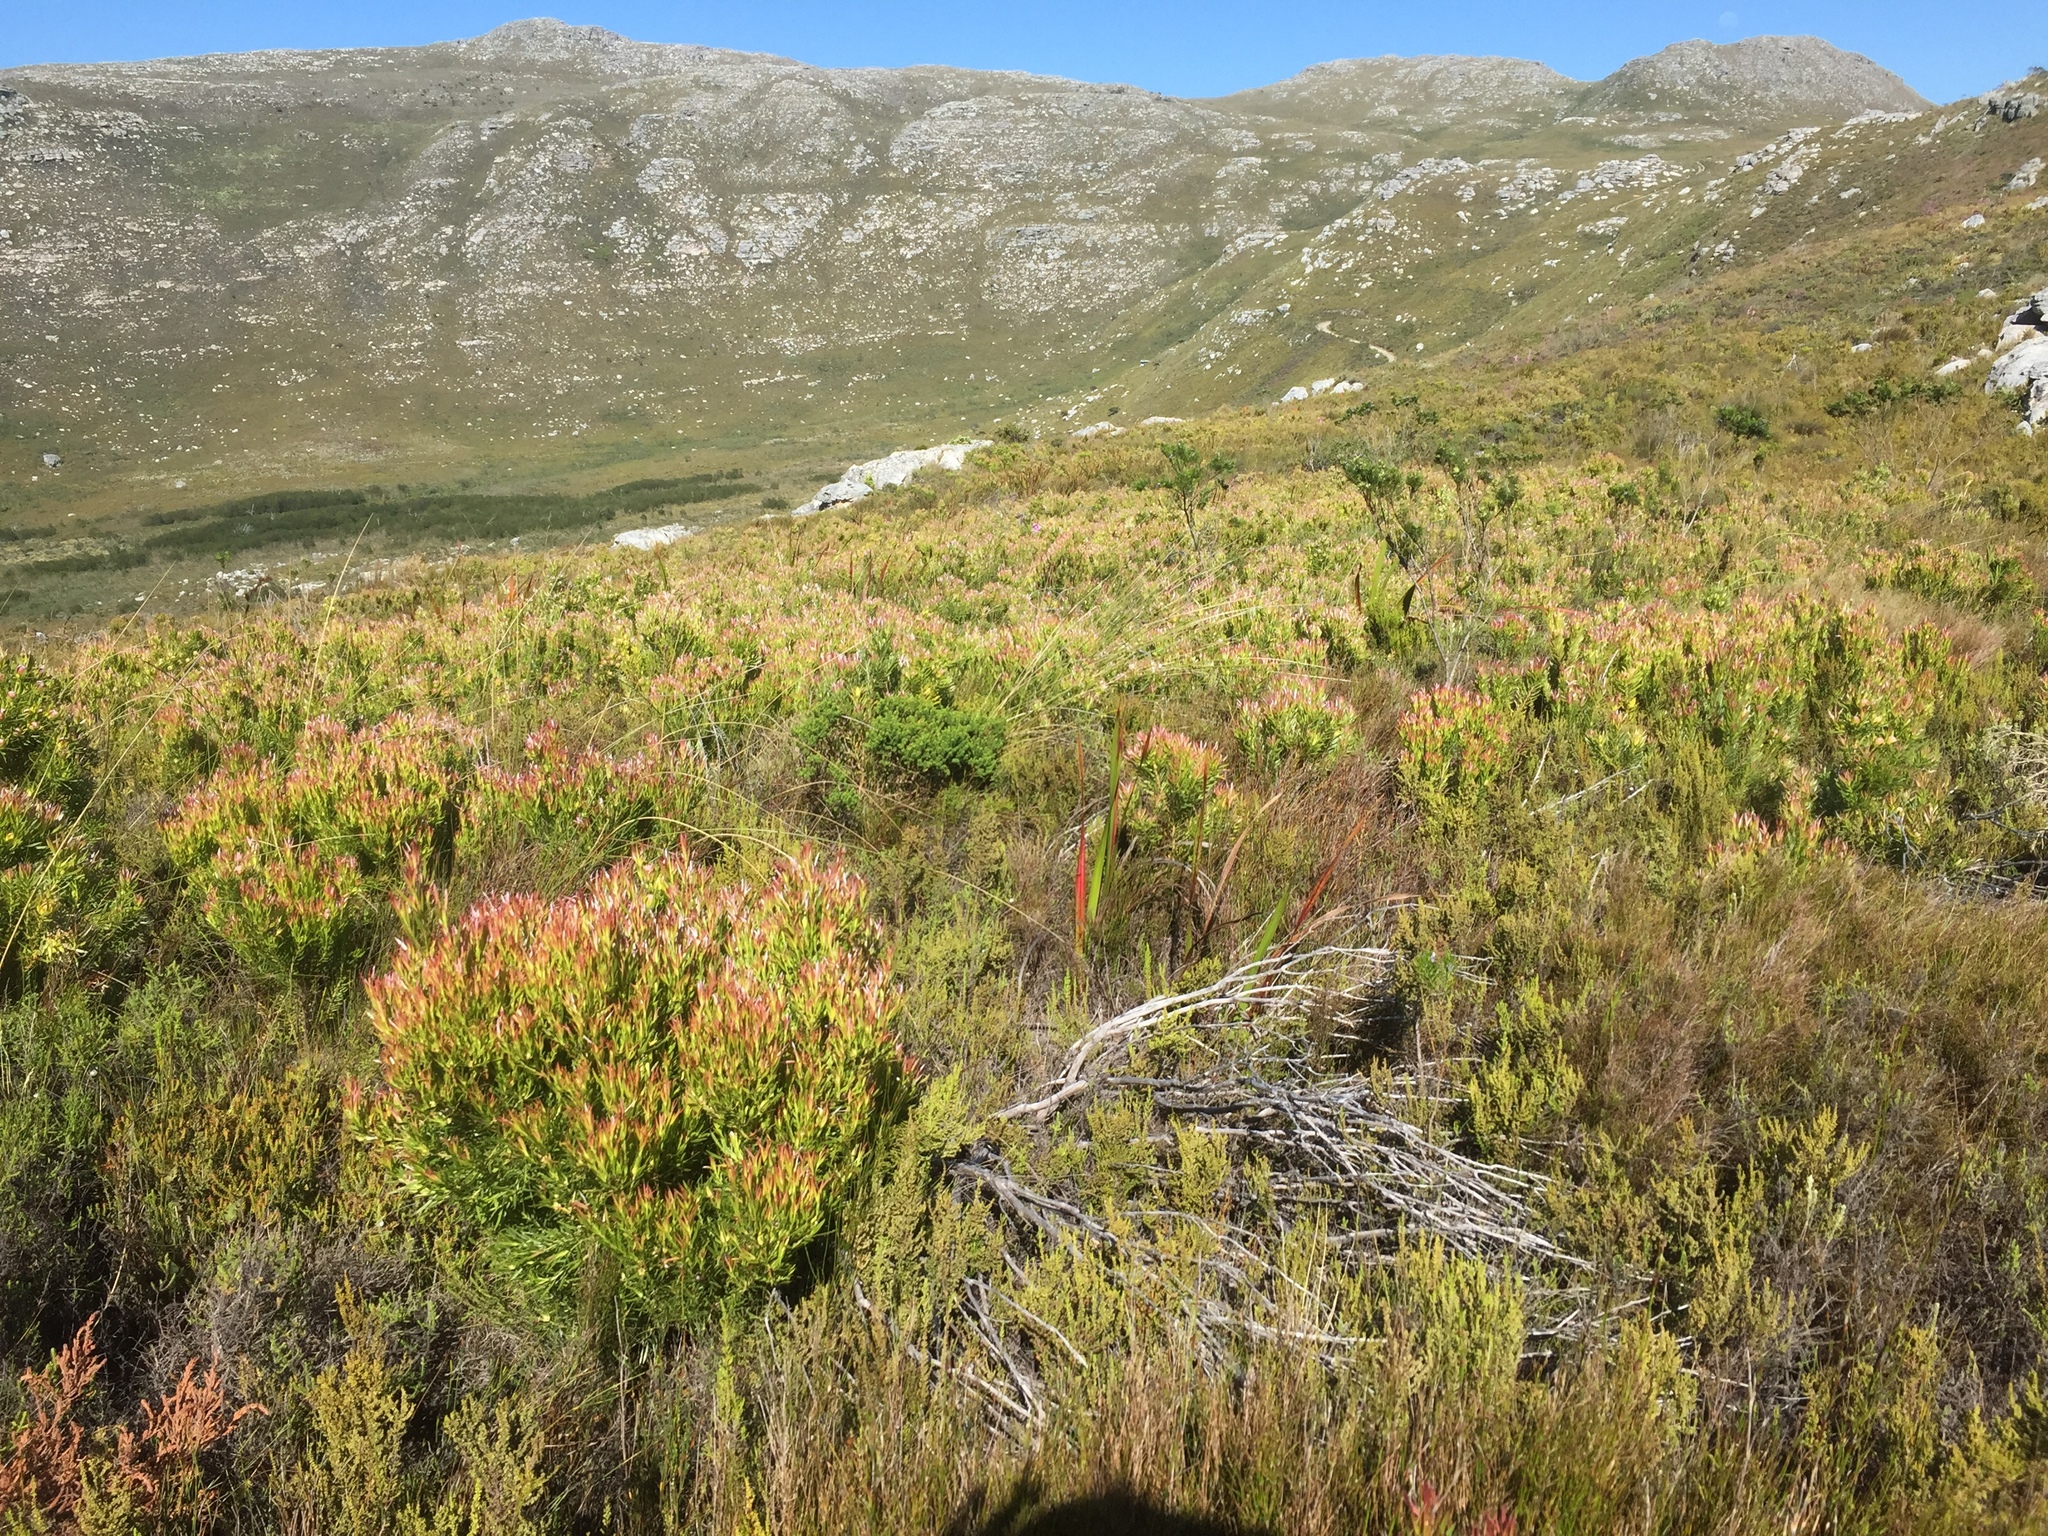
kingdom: Plantae
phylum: Tracheophyta
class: Magnoliopsida
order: Proteales
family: Proteaceae
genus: Leucadendron
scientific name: Leucadendron xanthoconus
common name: Sickle-leaf conebush
